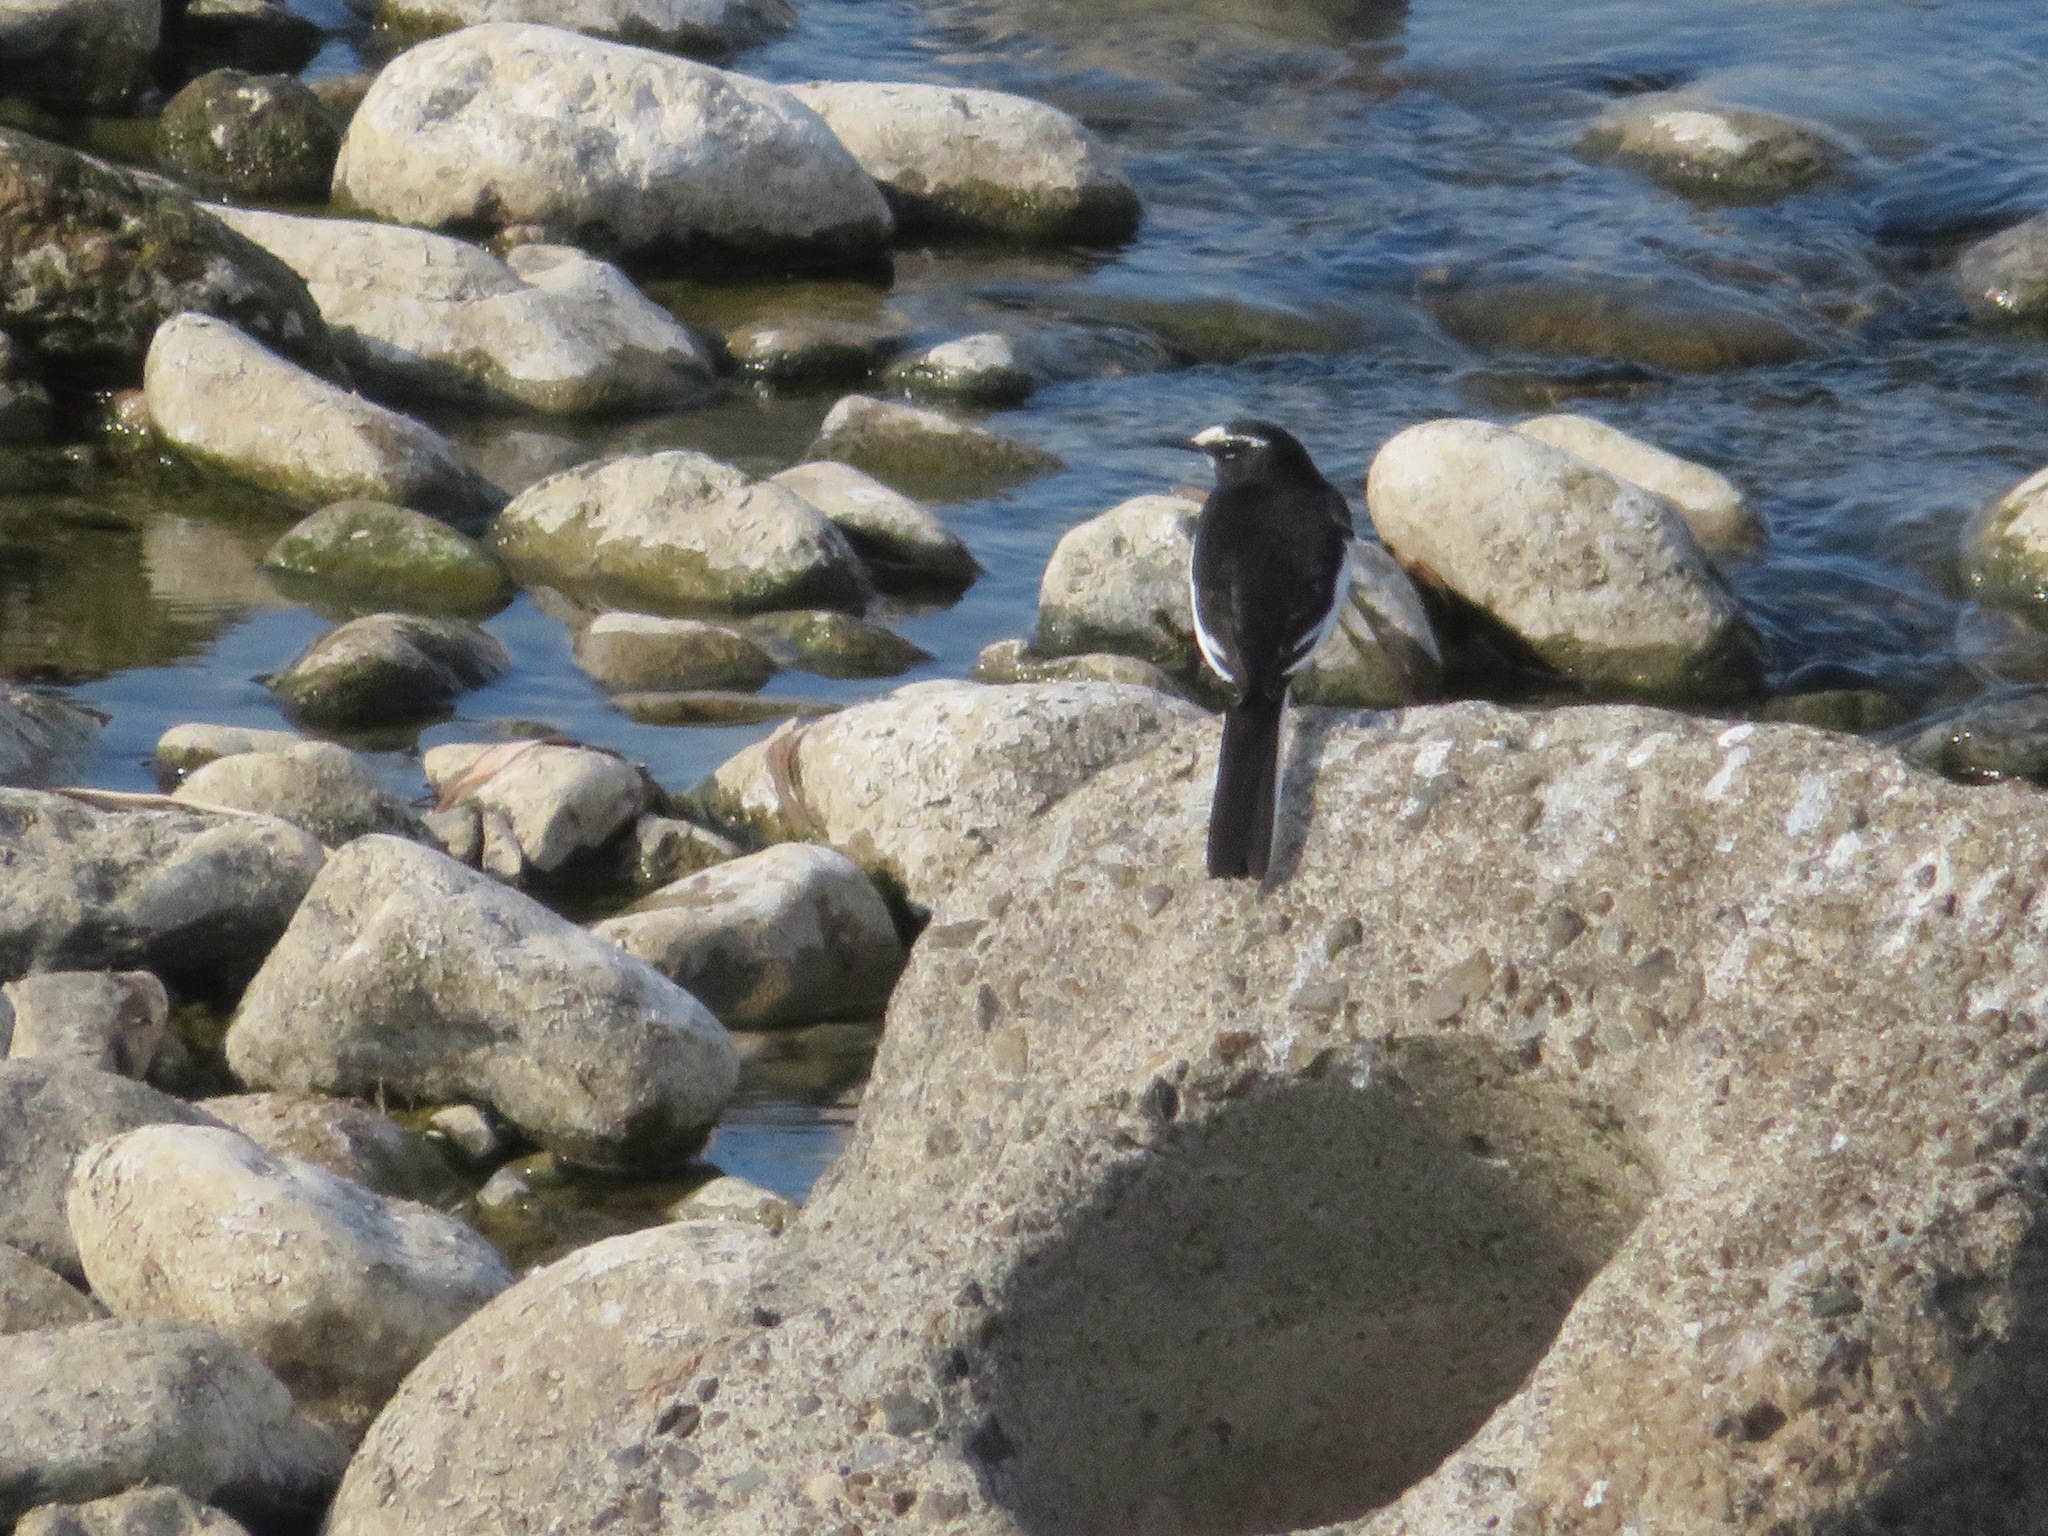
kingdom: Animalia
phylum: Chordata
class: Aves
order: Passeriformes
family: Motacillidae
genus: Motacilla
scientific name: Motacilla grandis
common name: Japanese wagtail
